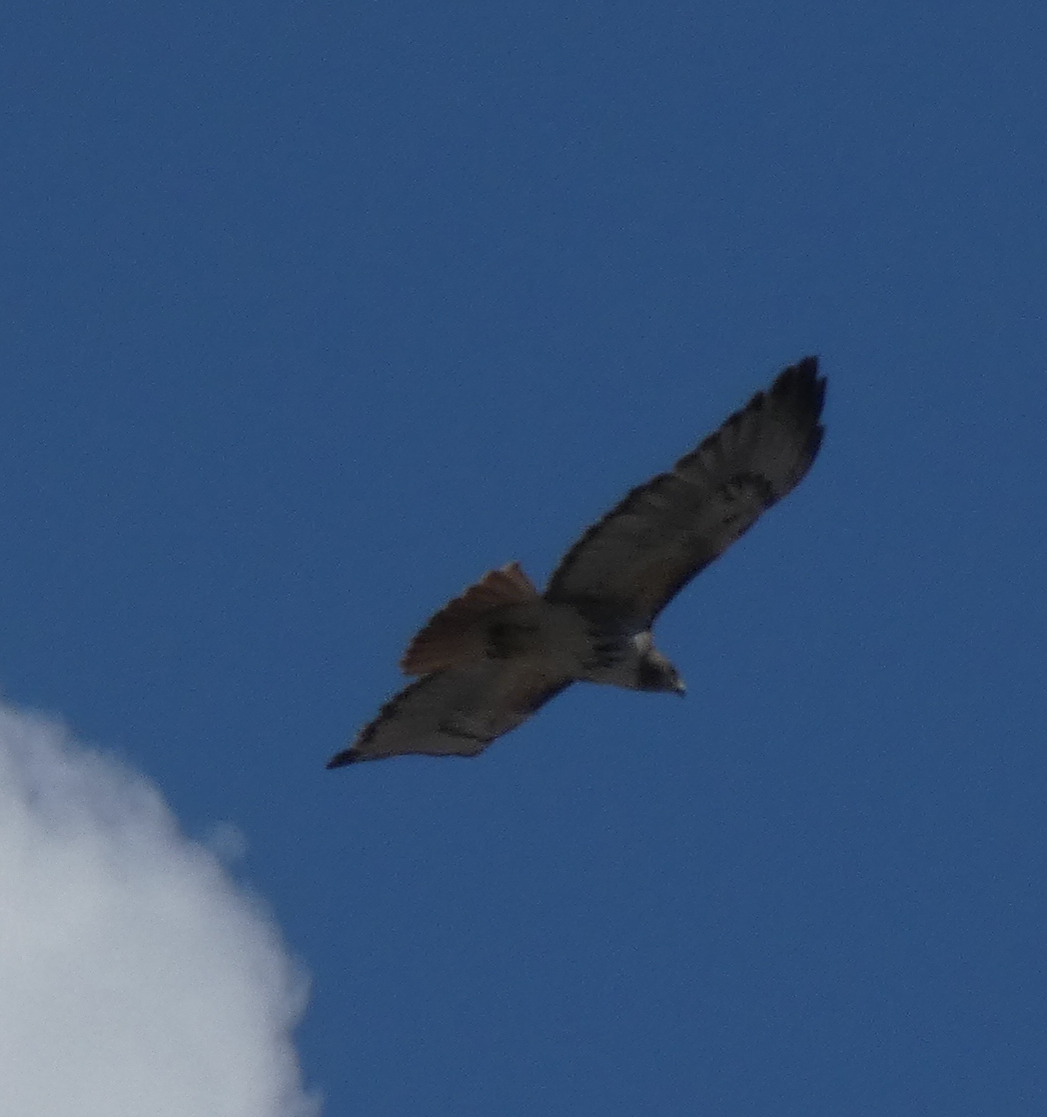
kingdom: Animalia
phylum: Chordata
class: Aves
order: Accipitriformes
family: Accipitridae
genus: Buteo
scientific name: Buteo jamaicensis
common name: Red-tailed hawk
